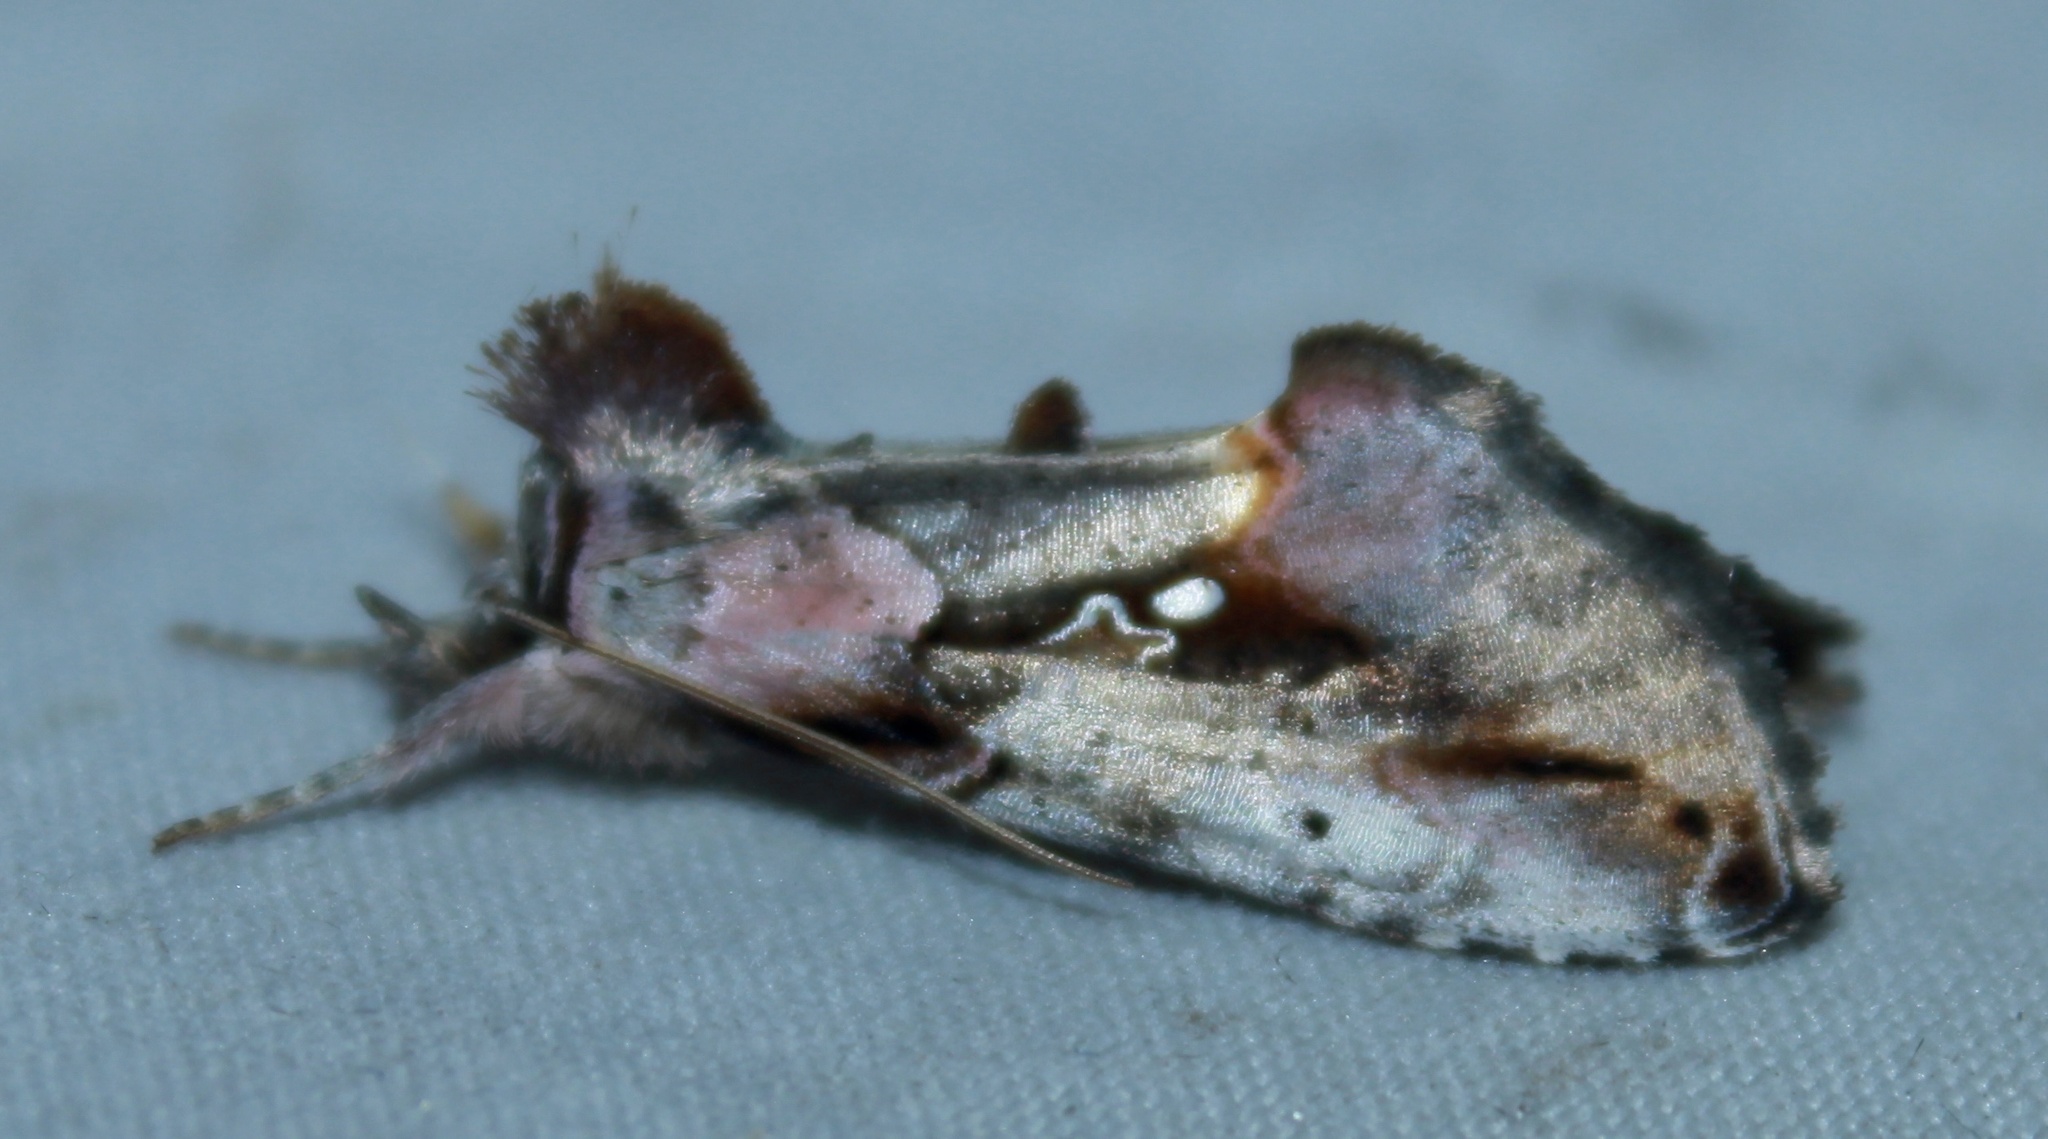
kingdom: Animalia
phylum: Arthropoda
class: Insecta
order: Lepidoptera
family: Noctuidae
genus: Eosphoropteryx
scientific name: Eosphoropteryx thyatyroides
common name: Pinkpatched looper moth
